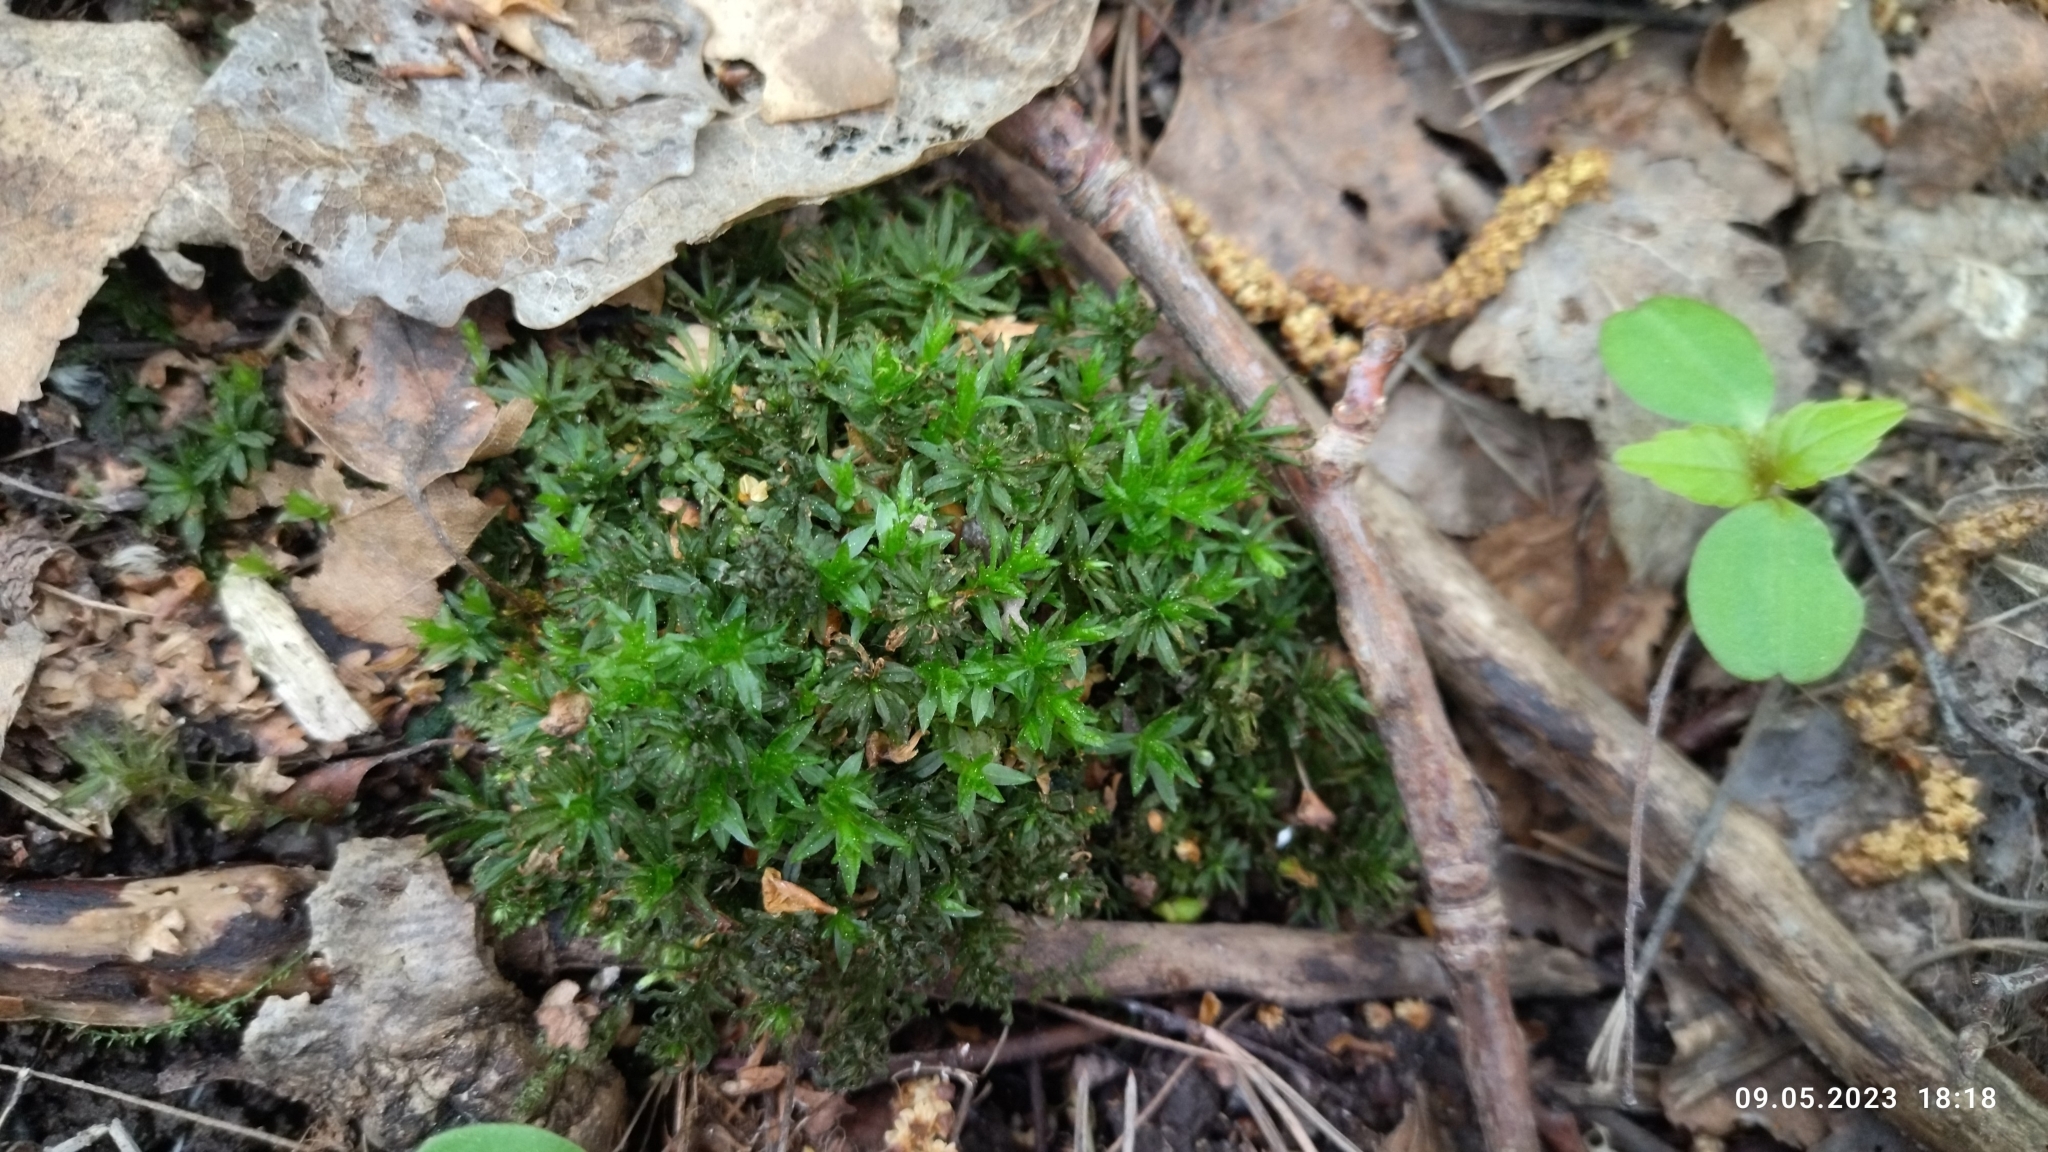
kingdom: Plantae
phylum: Bryophyta
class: Polytrichopsida
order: Polytrichales
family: Polytrichaceae
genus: Atrichum
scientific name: Atrichum undulatum
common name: Common smoothcap
